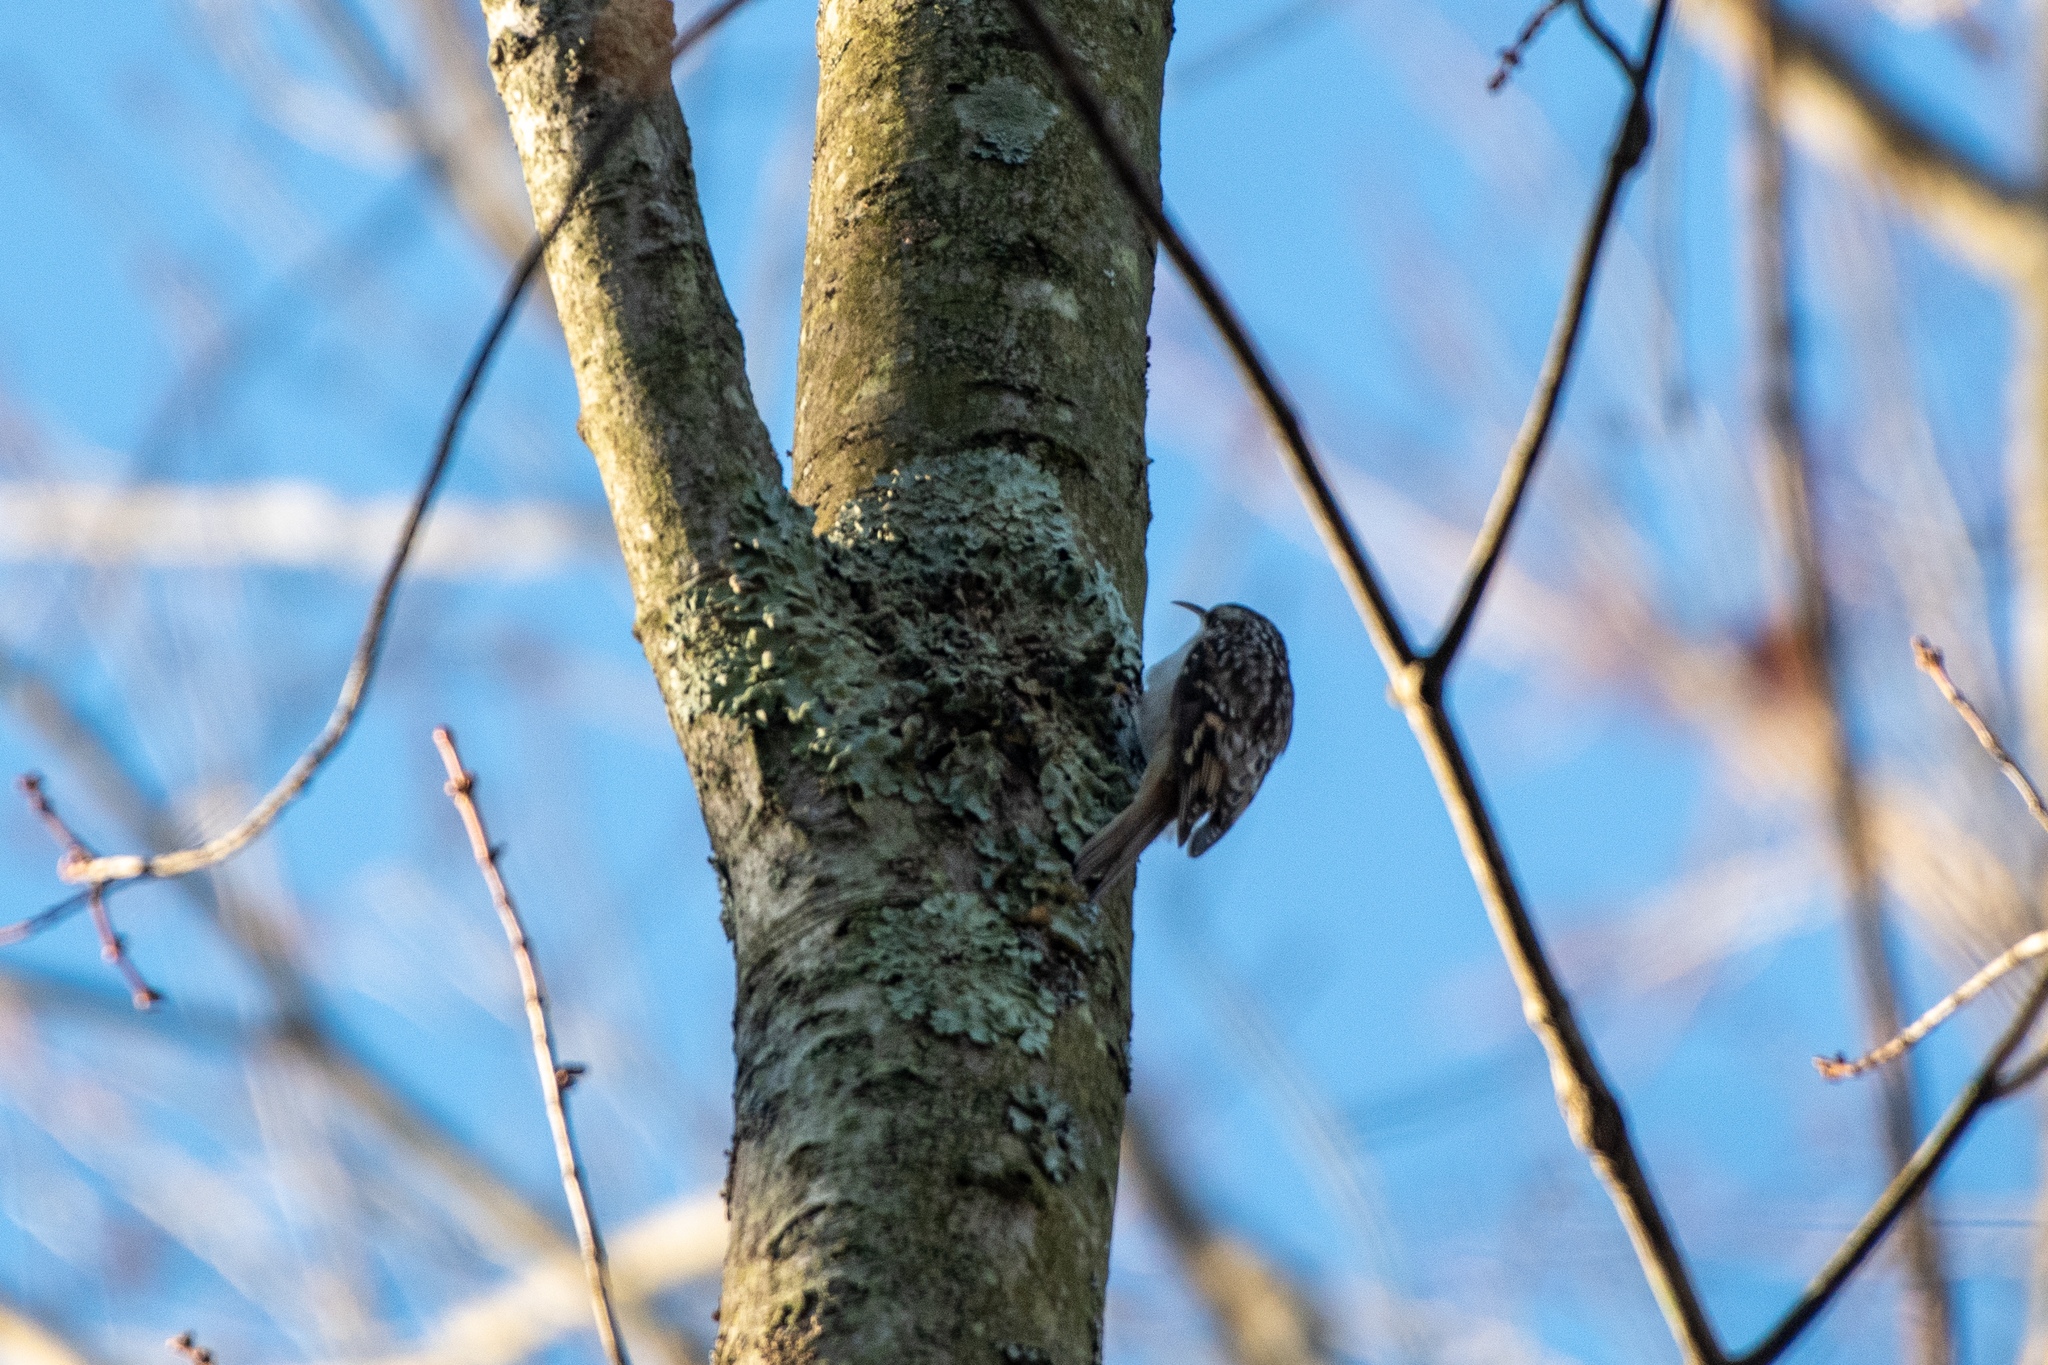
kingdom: Animalia
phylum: Chordata
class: Aves
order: Passeriformes
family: Certhiidae
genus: Certhia
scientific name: Certhia americana
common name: Brown creeper
